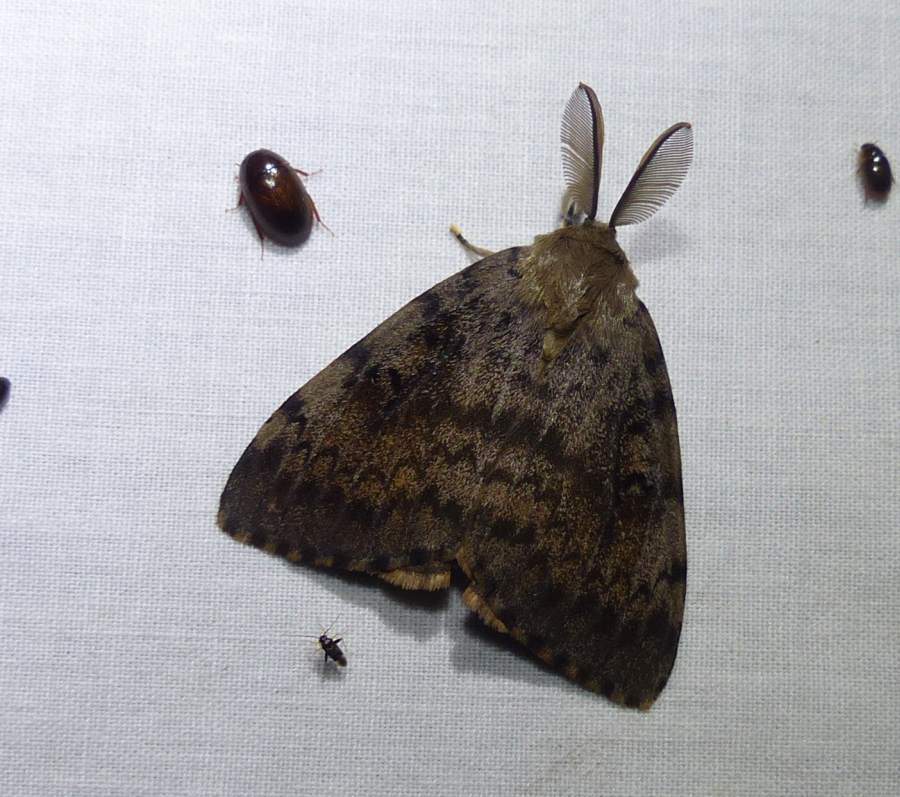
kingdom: Animalia
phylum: Arthropoda
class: Insecta
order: Lepidoptera
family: Erebidae
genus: Lymantria
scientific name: Lymantria dispar
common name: Gypsy moth
